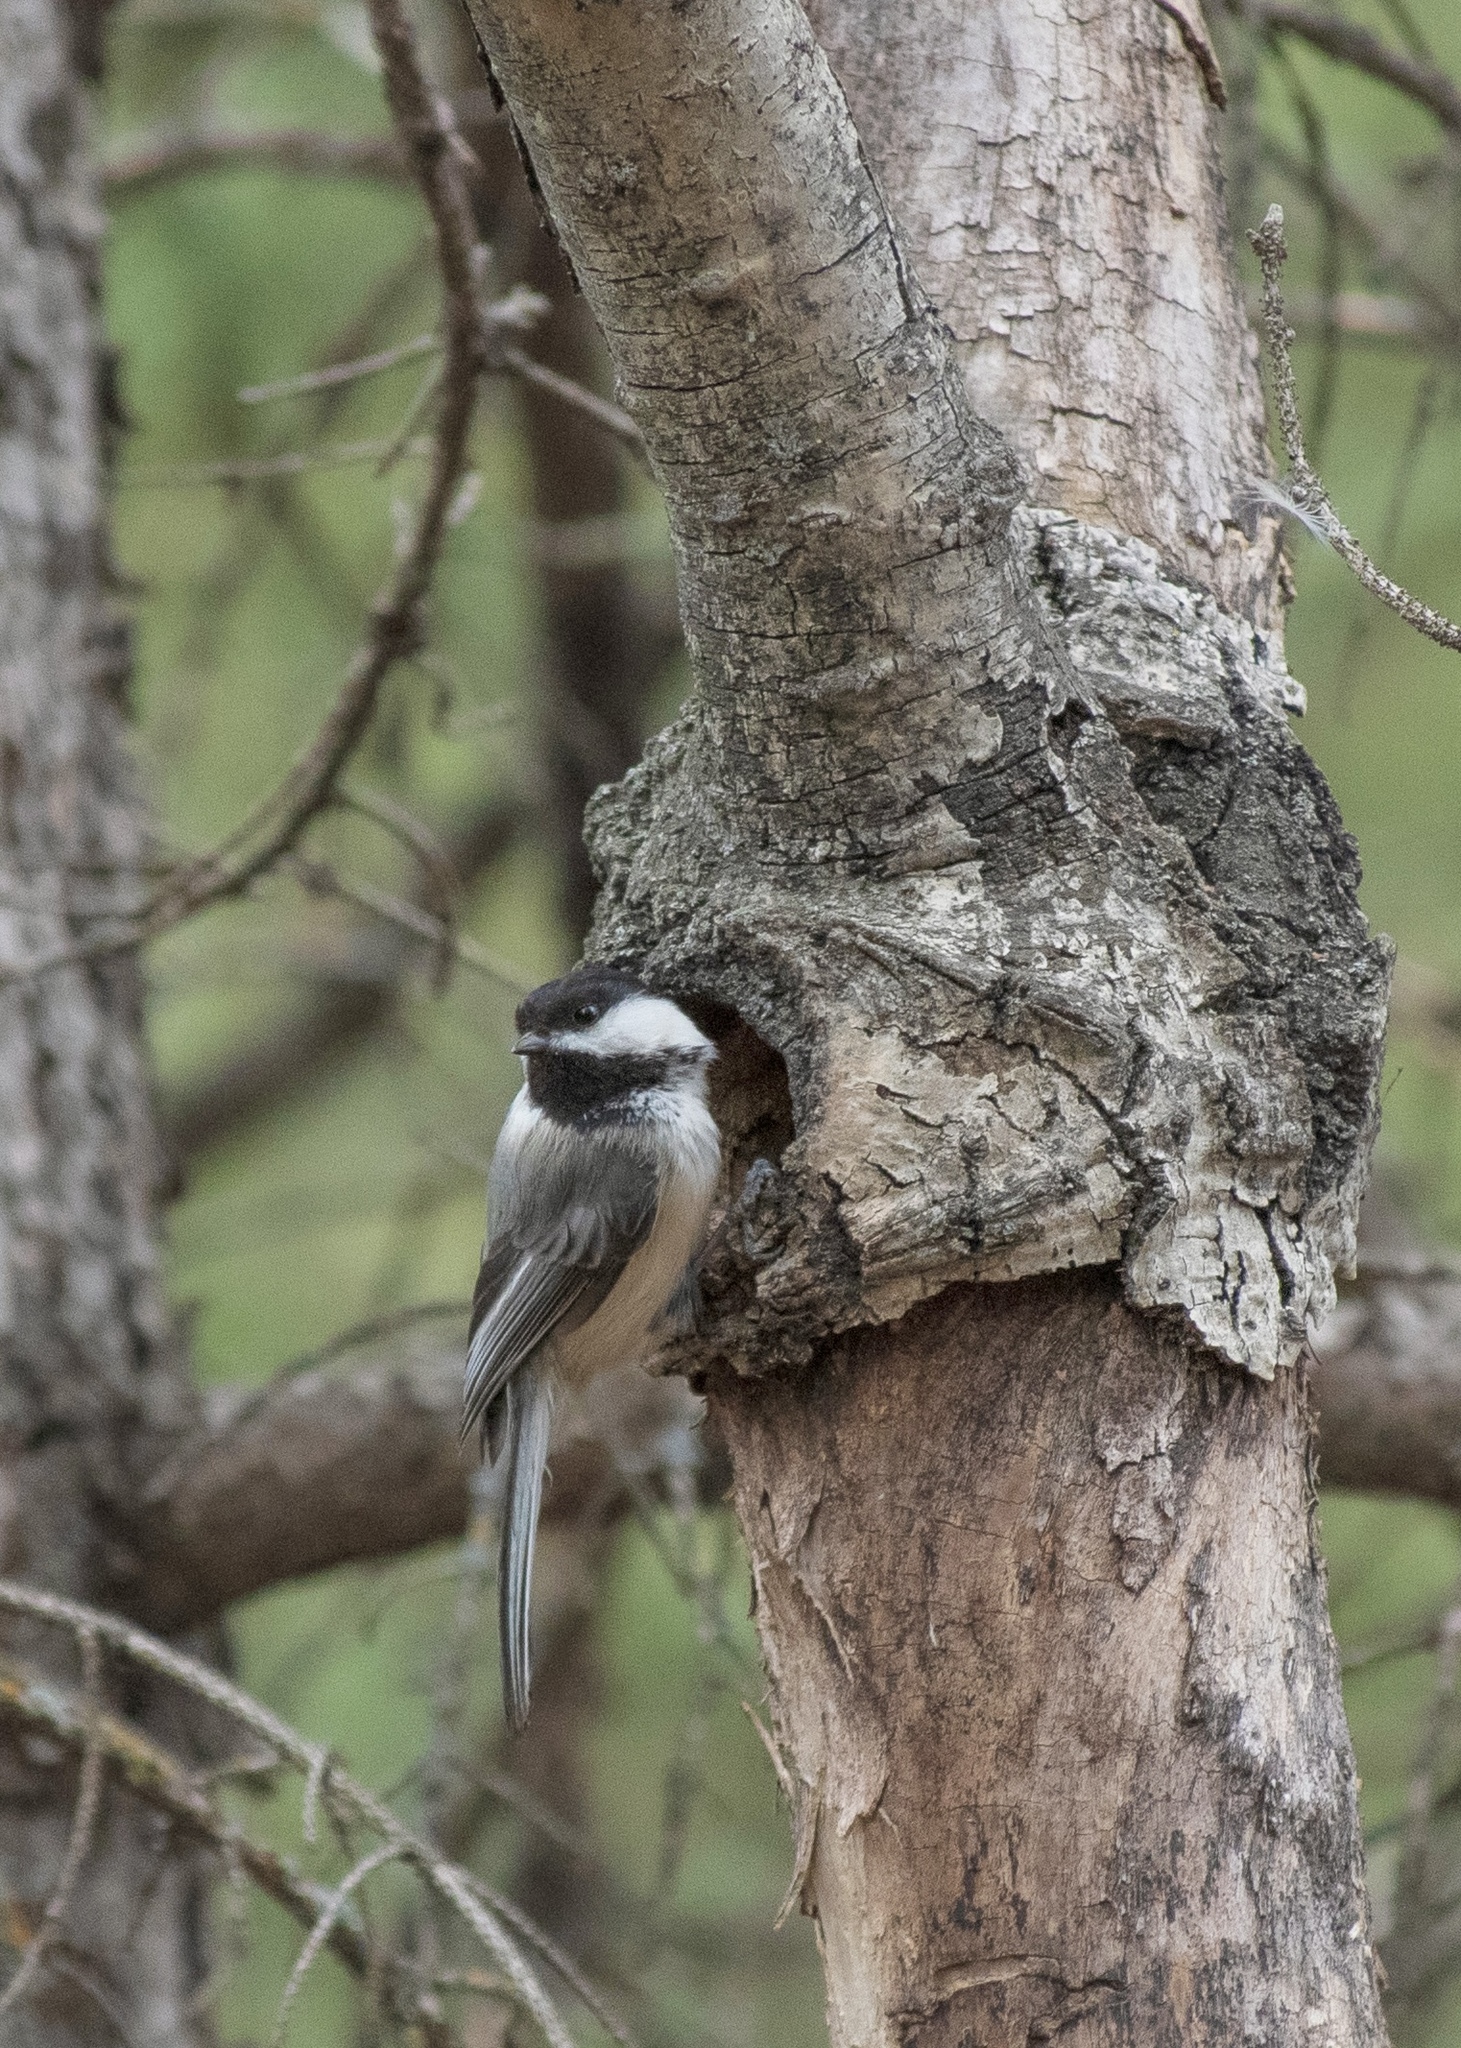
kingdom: Animalia
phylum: Chordata
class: Aves
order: Passeriformes
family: Paridae
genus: Poecile
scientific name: Poecile atricapillus
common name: Black-capped chickadee
